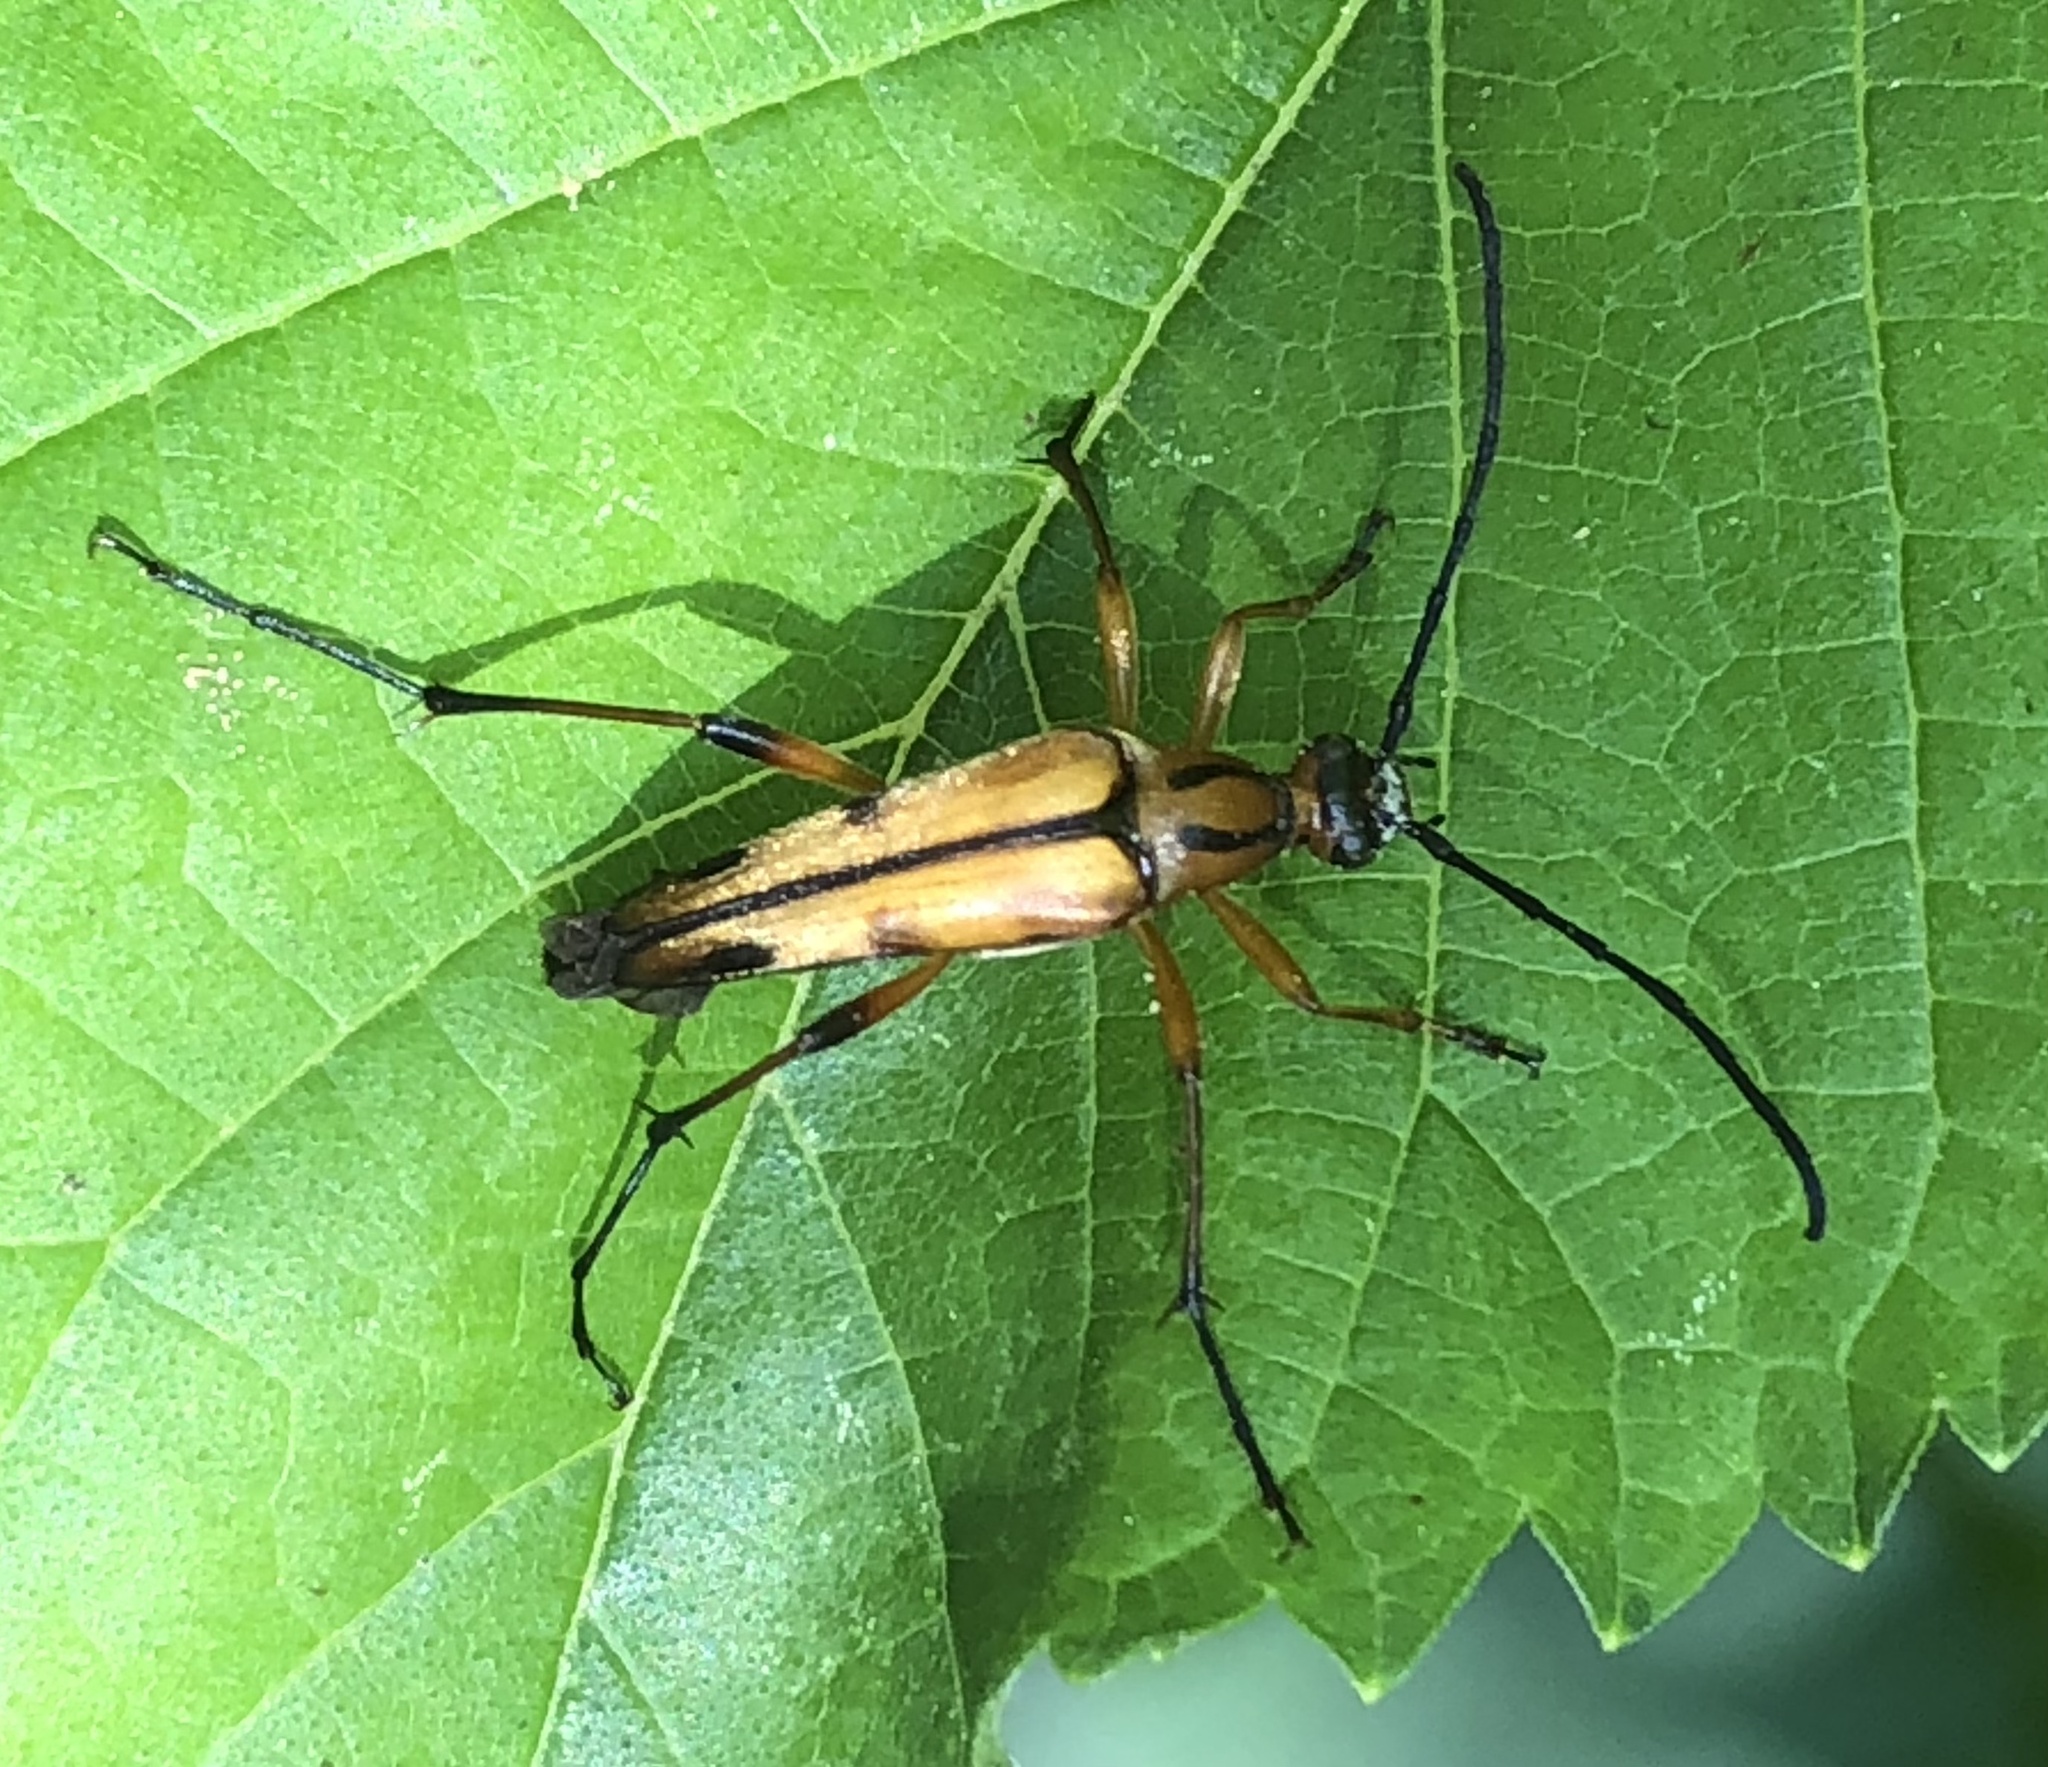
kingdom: Animalia
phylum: Arthropoda
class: Insecta
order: Coleoptera
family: Cerambycidae
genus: Strangalia
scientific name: Strangalia famelica
